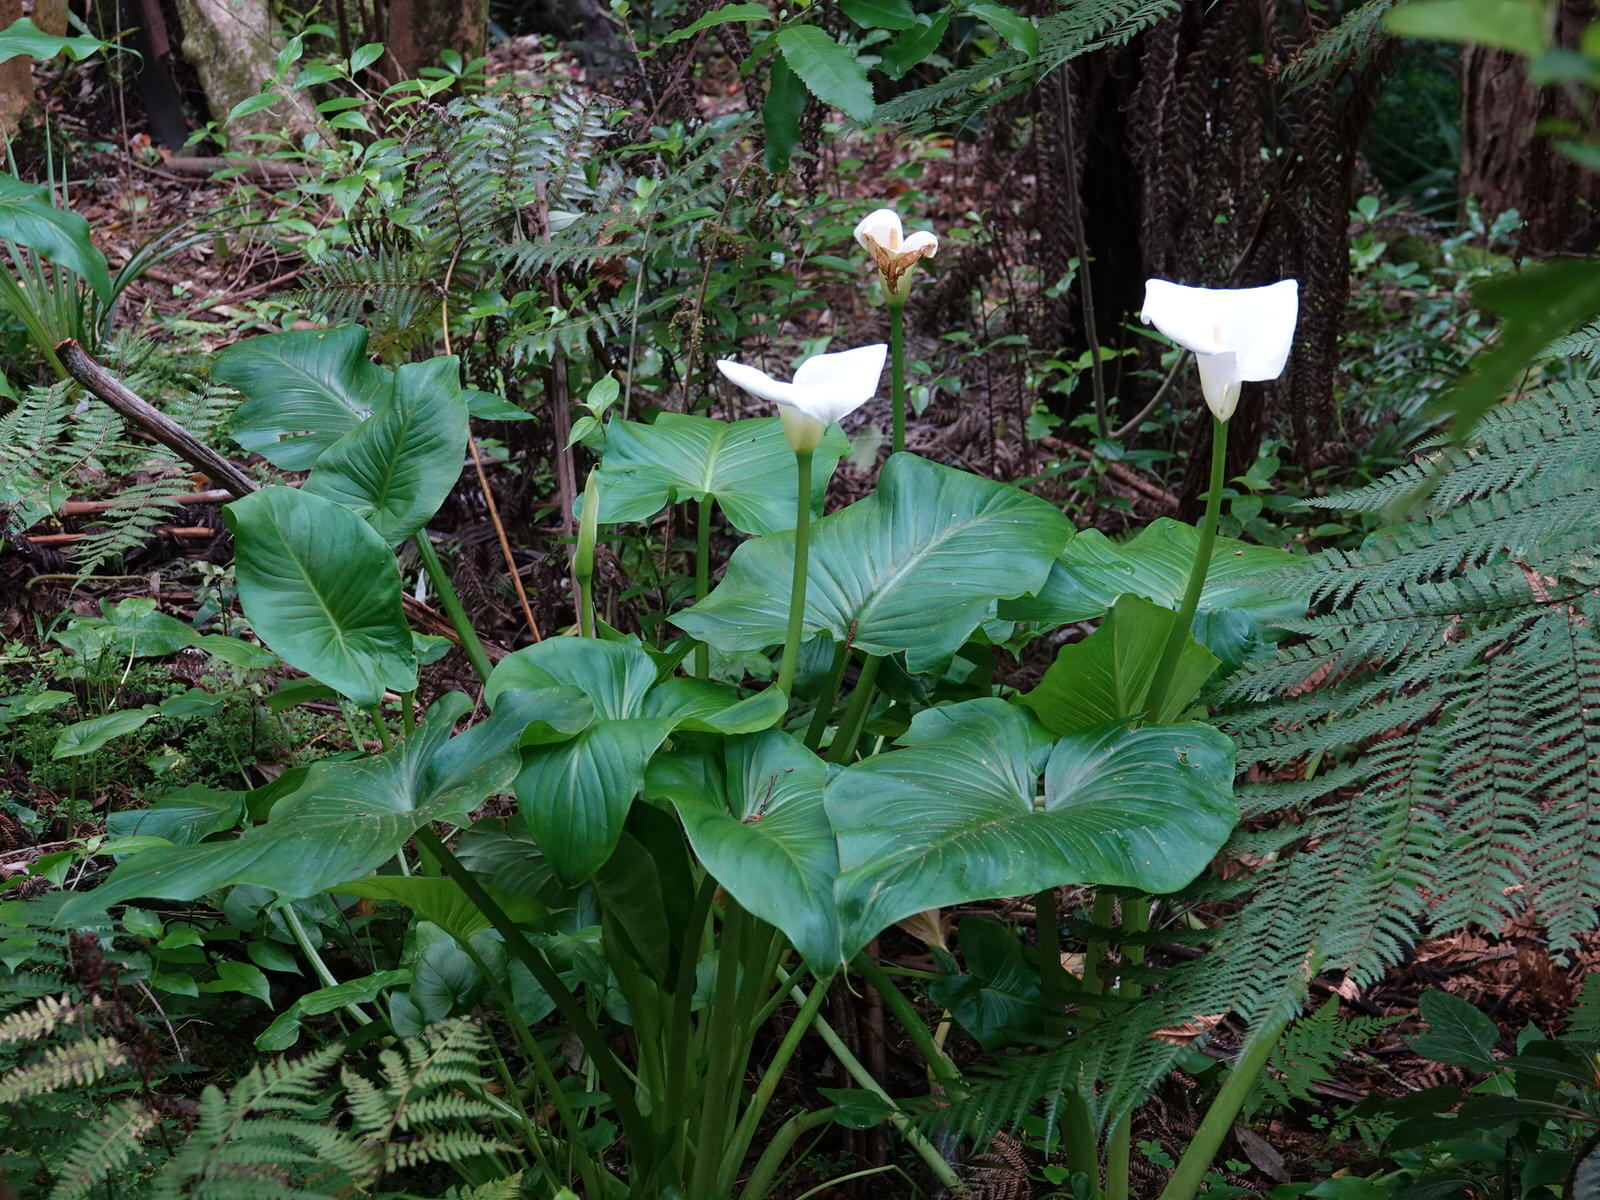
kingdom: Plantae
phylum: Tracheophyta
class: Liliopsida
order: Alismatales
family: Araceae
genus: Zantedeschia
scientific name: Zantedeschia aethiopica
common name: Altar-lily
